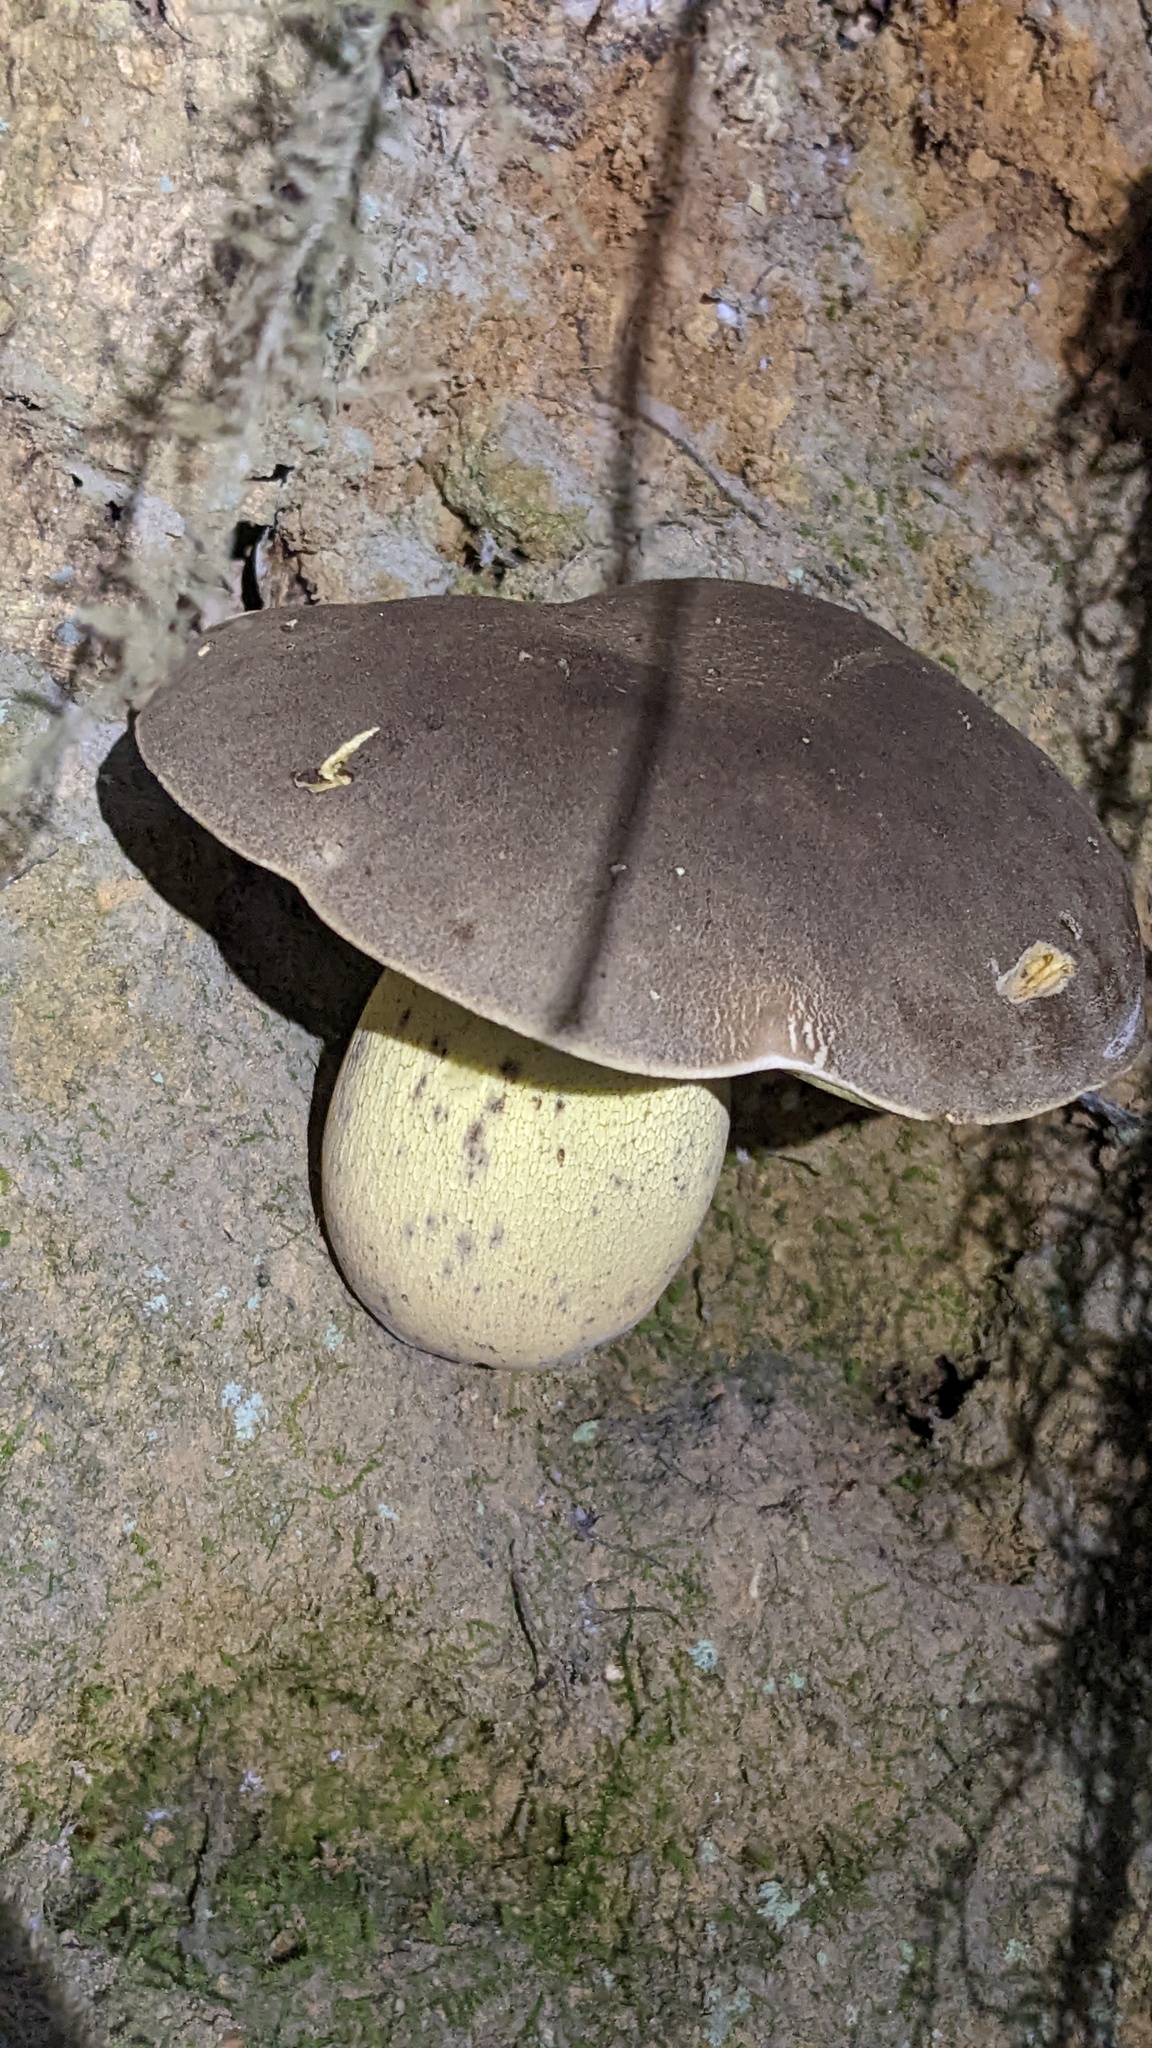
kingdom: Fungi
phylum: Basidiomycota
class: Agaricomycetes
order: Boletales
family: Boletaceae
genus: Caloboletus
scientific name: Caloboletus conifericola
